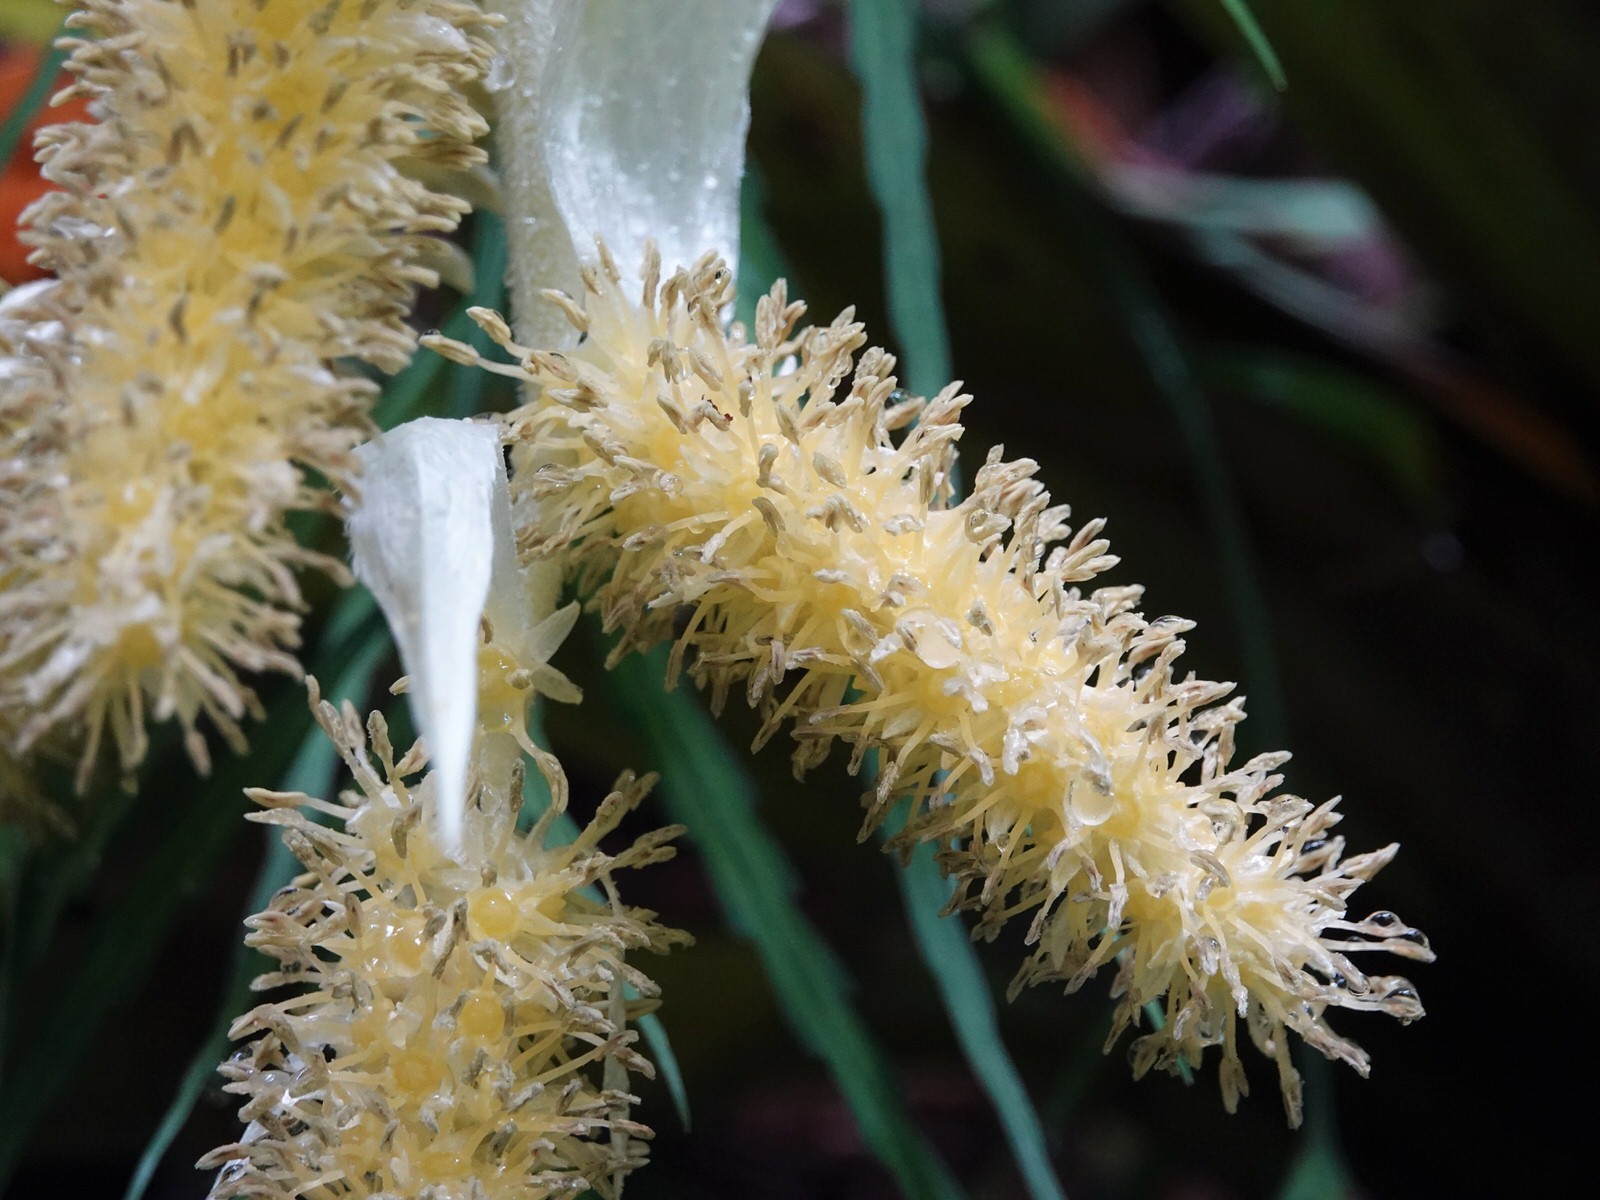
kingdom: Plantae
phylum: Tracheophyta
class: Liliopsida
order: Asparagales
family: Asteliaceae
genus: Astelia
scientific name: Astelia hastata
